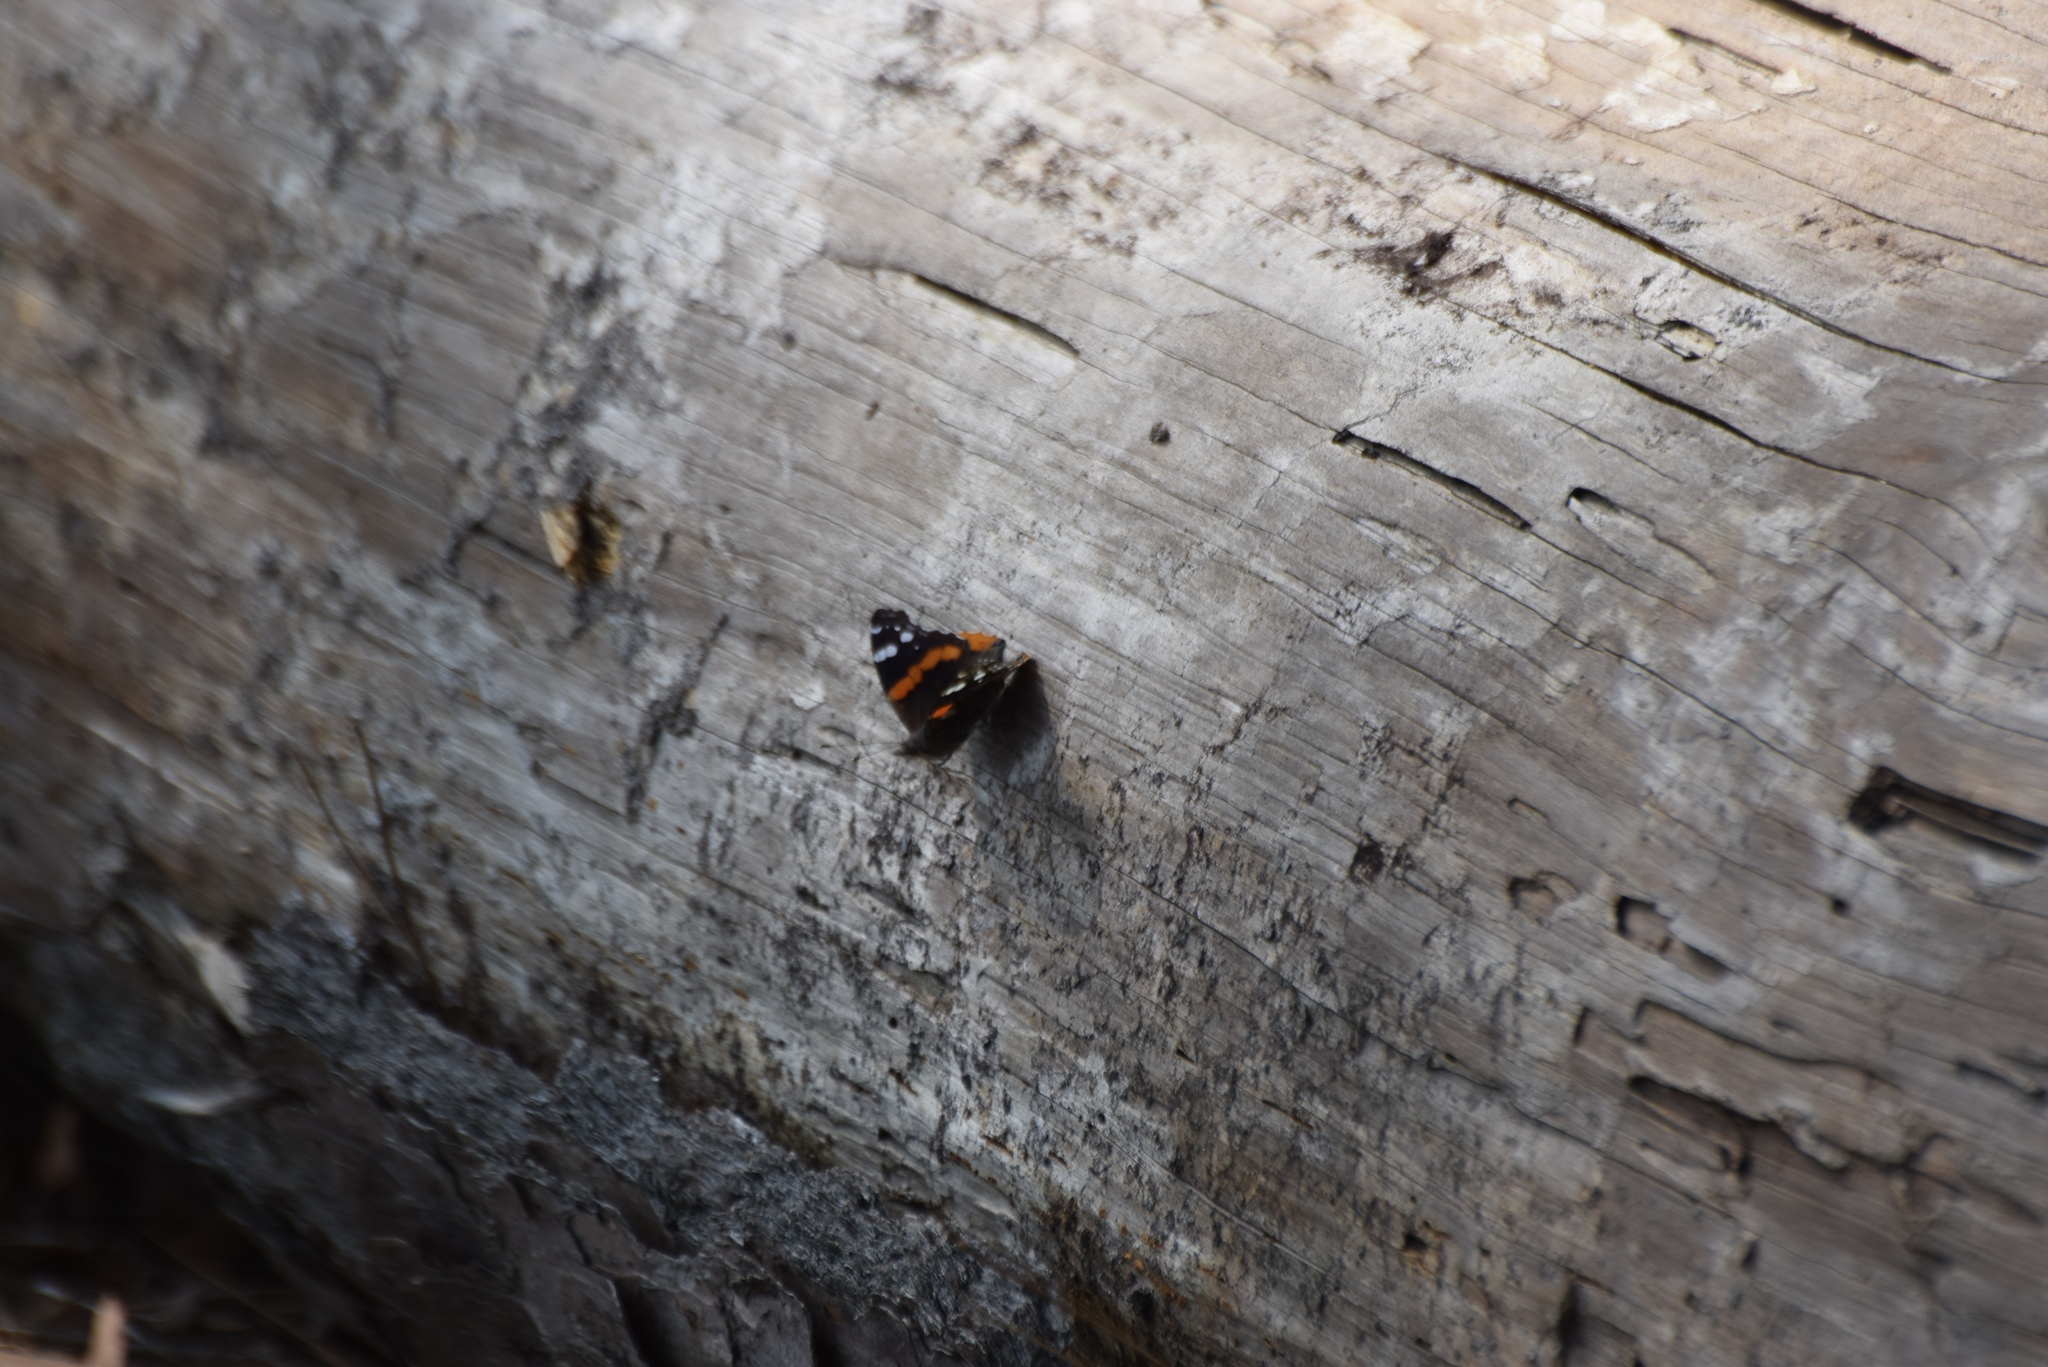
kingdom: Animalia
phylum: Arthropoda
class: Insecta
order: Lepidoptera
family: Nymphalidae
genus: Vanessa
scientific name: Vanessa atalanta
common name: Red admiral
